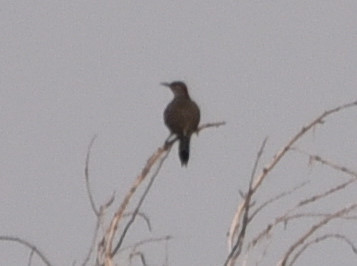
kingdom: Animalia
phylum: Chordata
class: Aves
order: Passeriformes
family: Mimidae
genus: Toxostoma
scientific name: Toxostoma curvirostre
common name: Curve-billed thrasher
